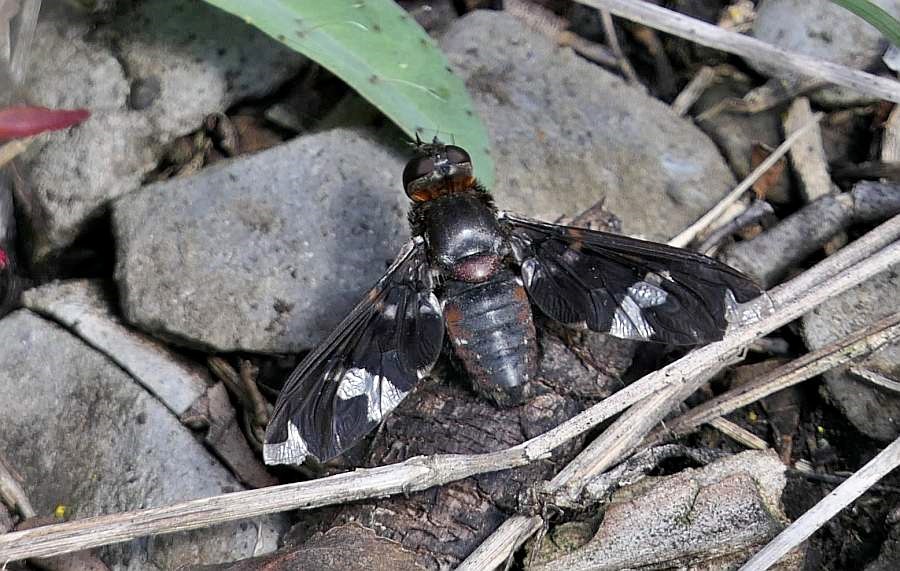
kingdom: Animalia
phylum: Arthropoda
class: Insecta
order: Diptera
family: Bombyliidae
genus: Exoprosopa
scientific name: Exoprosopa decora
